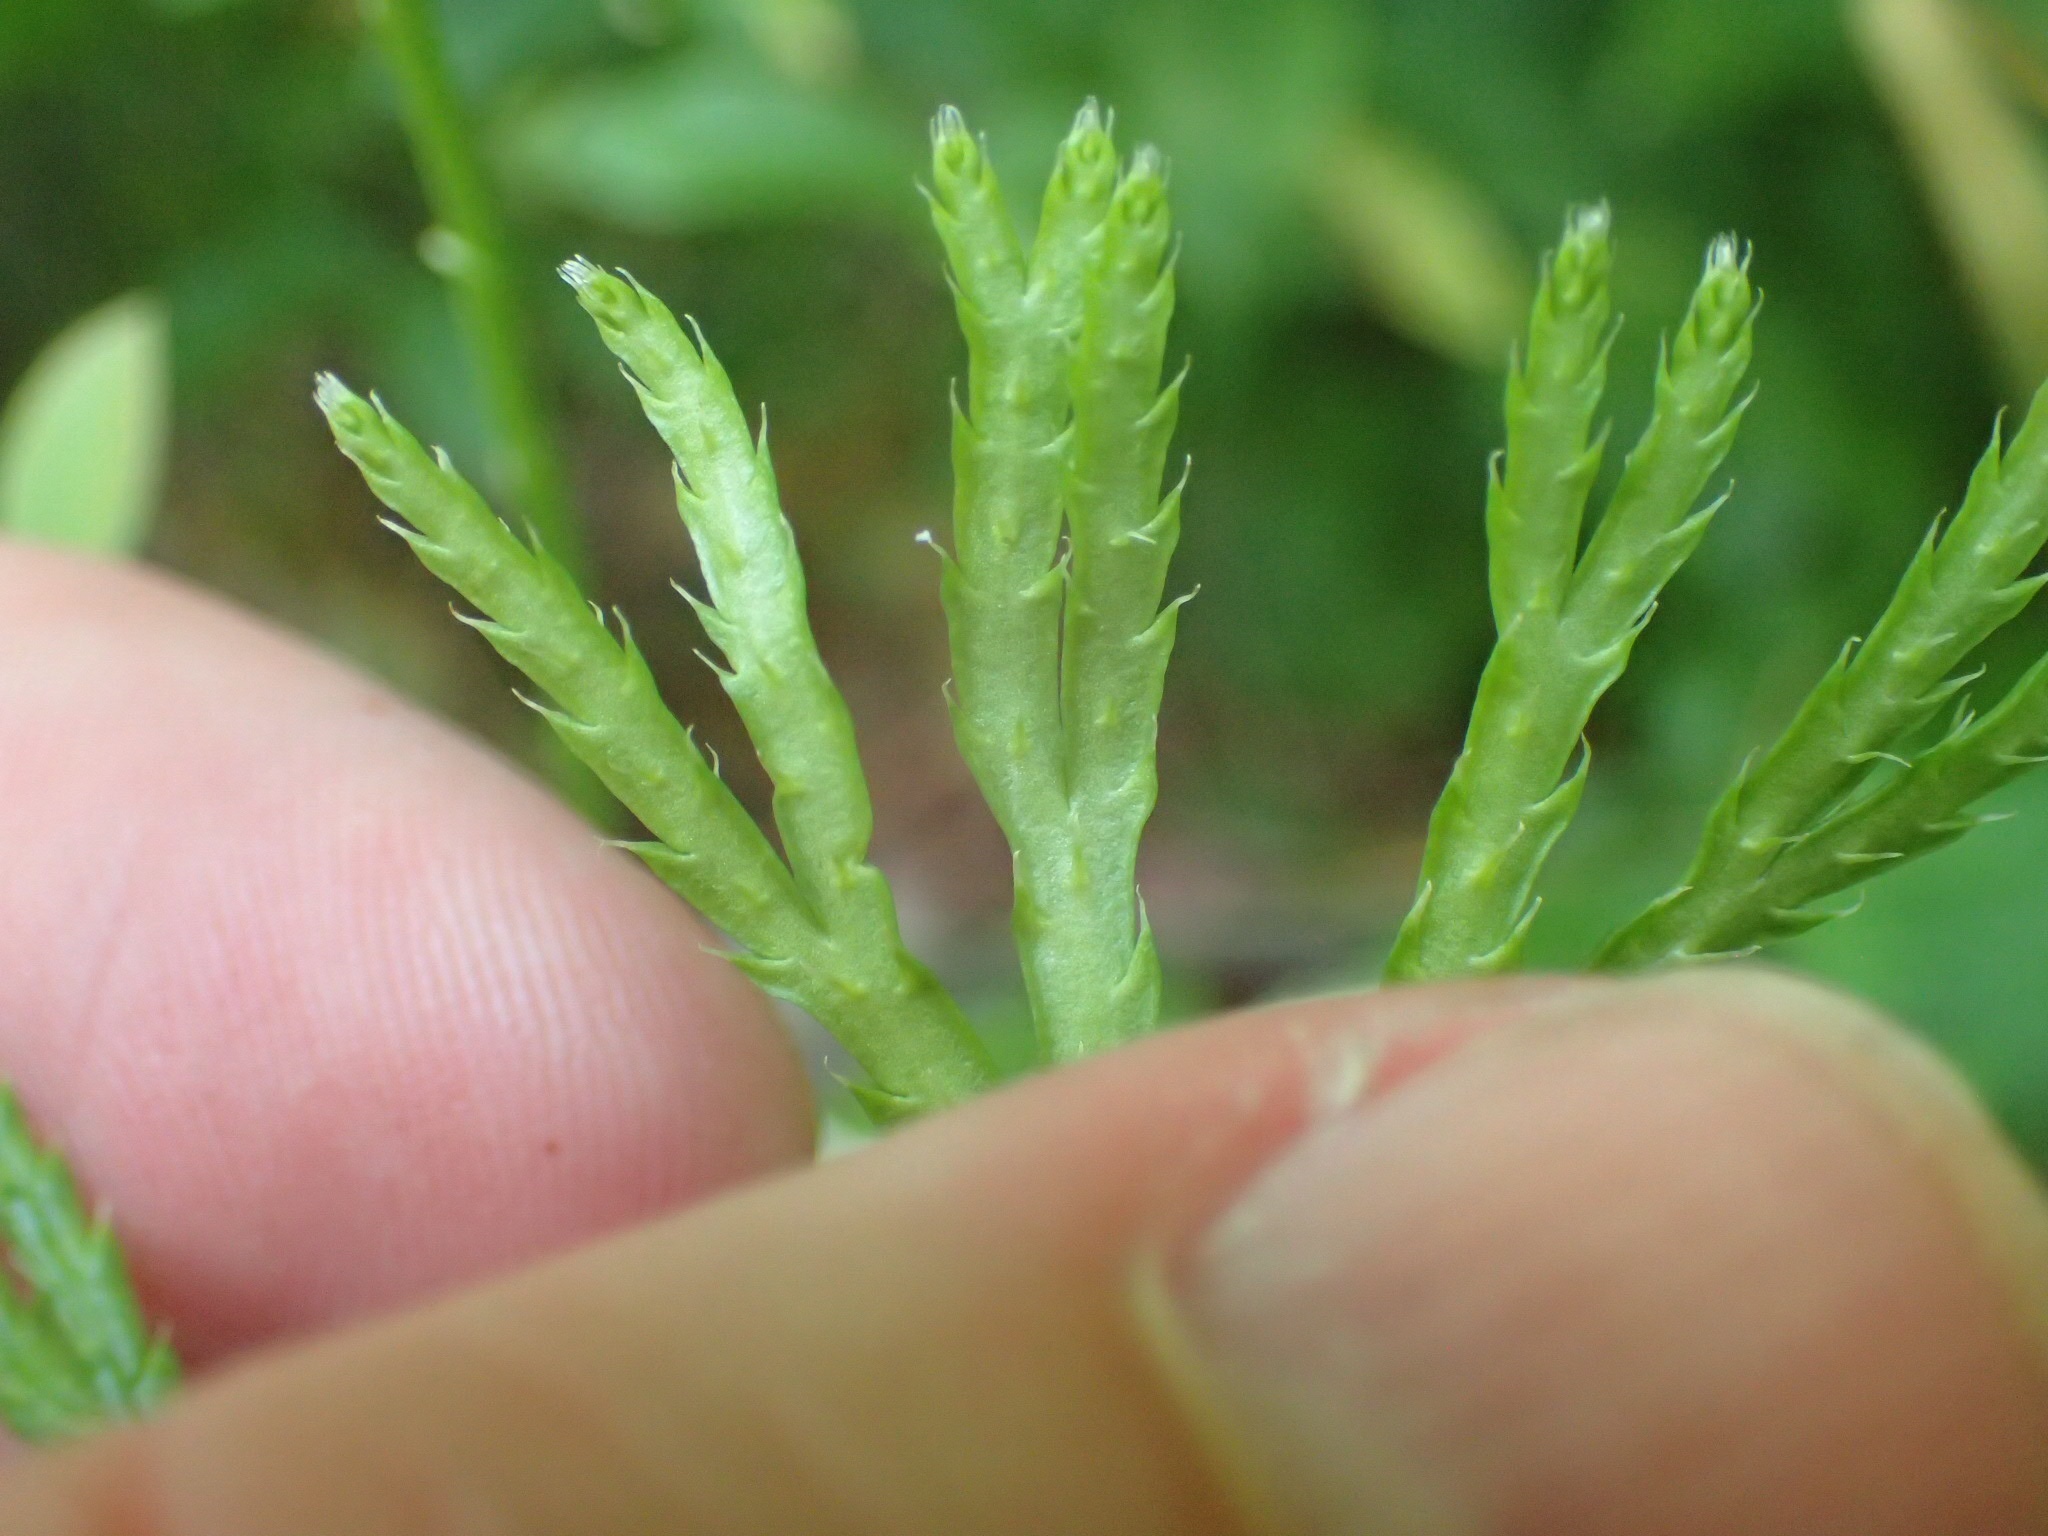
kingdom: Plantae
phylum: Tracheophyta
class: Lycopodiopsida
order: Lycopodiales
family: Lycopodiaceae
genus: Diphasiastrum
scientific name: Diphasiastrum digitatum
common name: Southern running-pine
